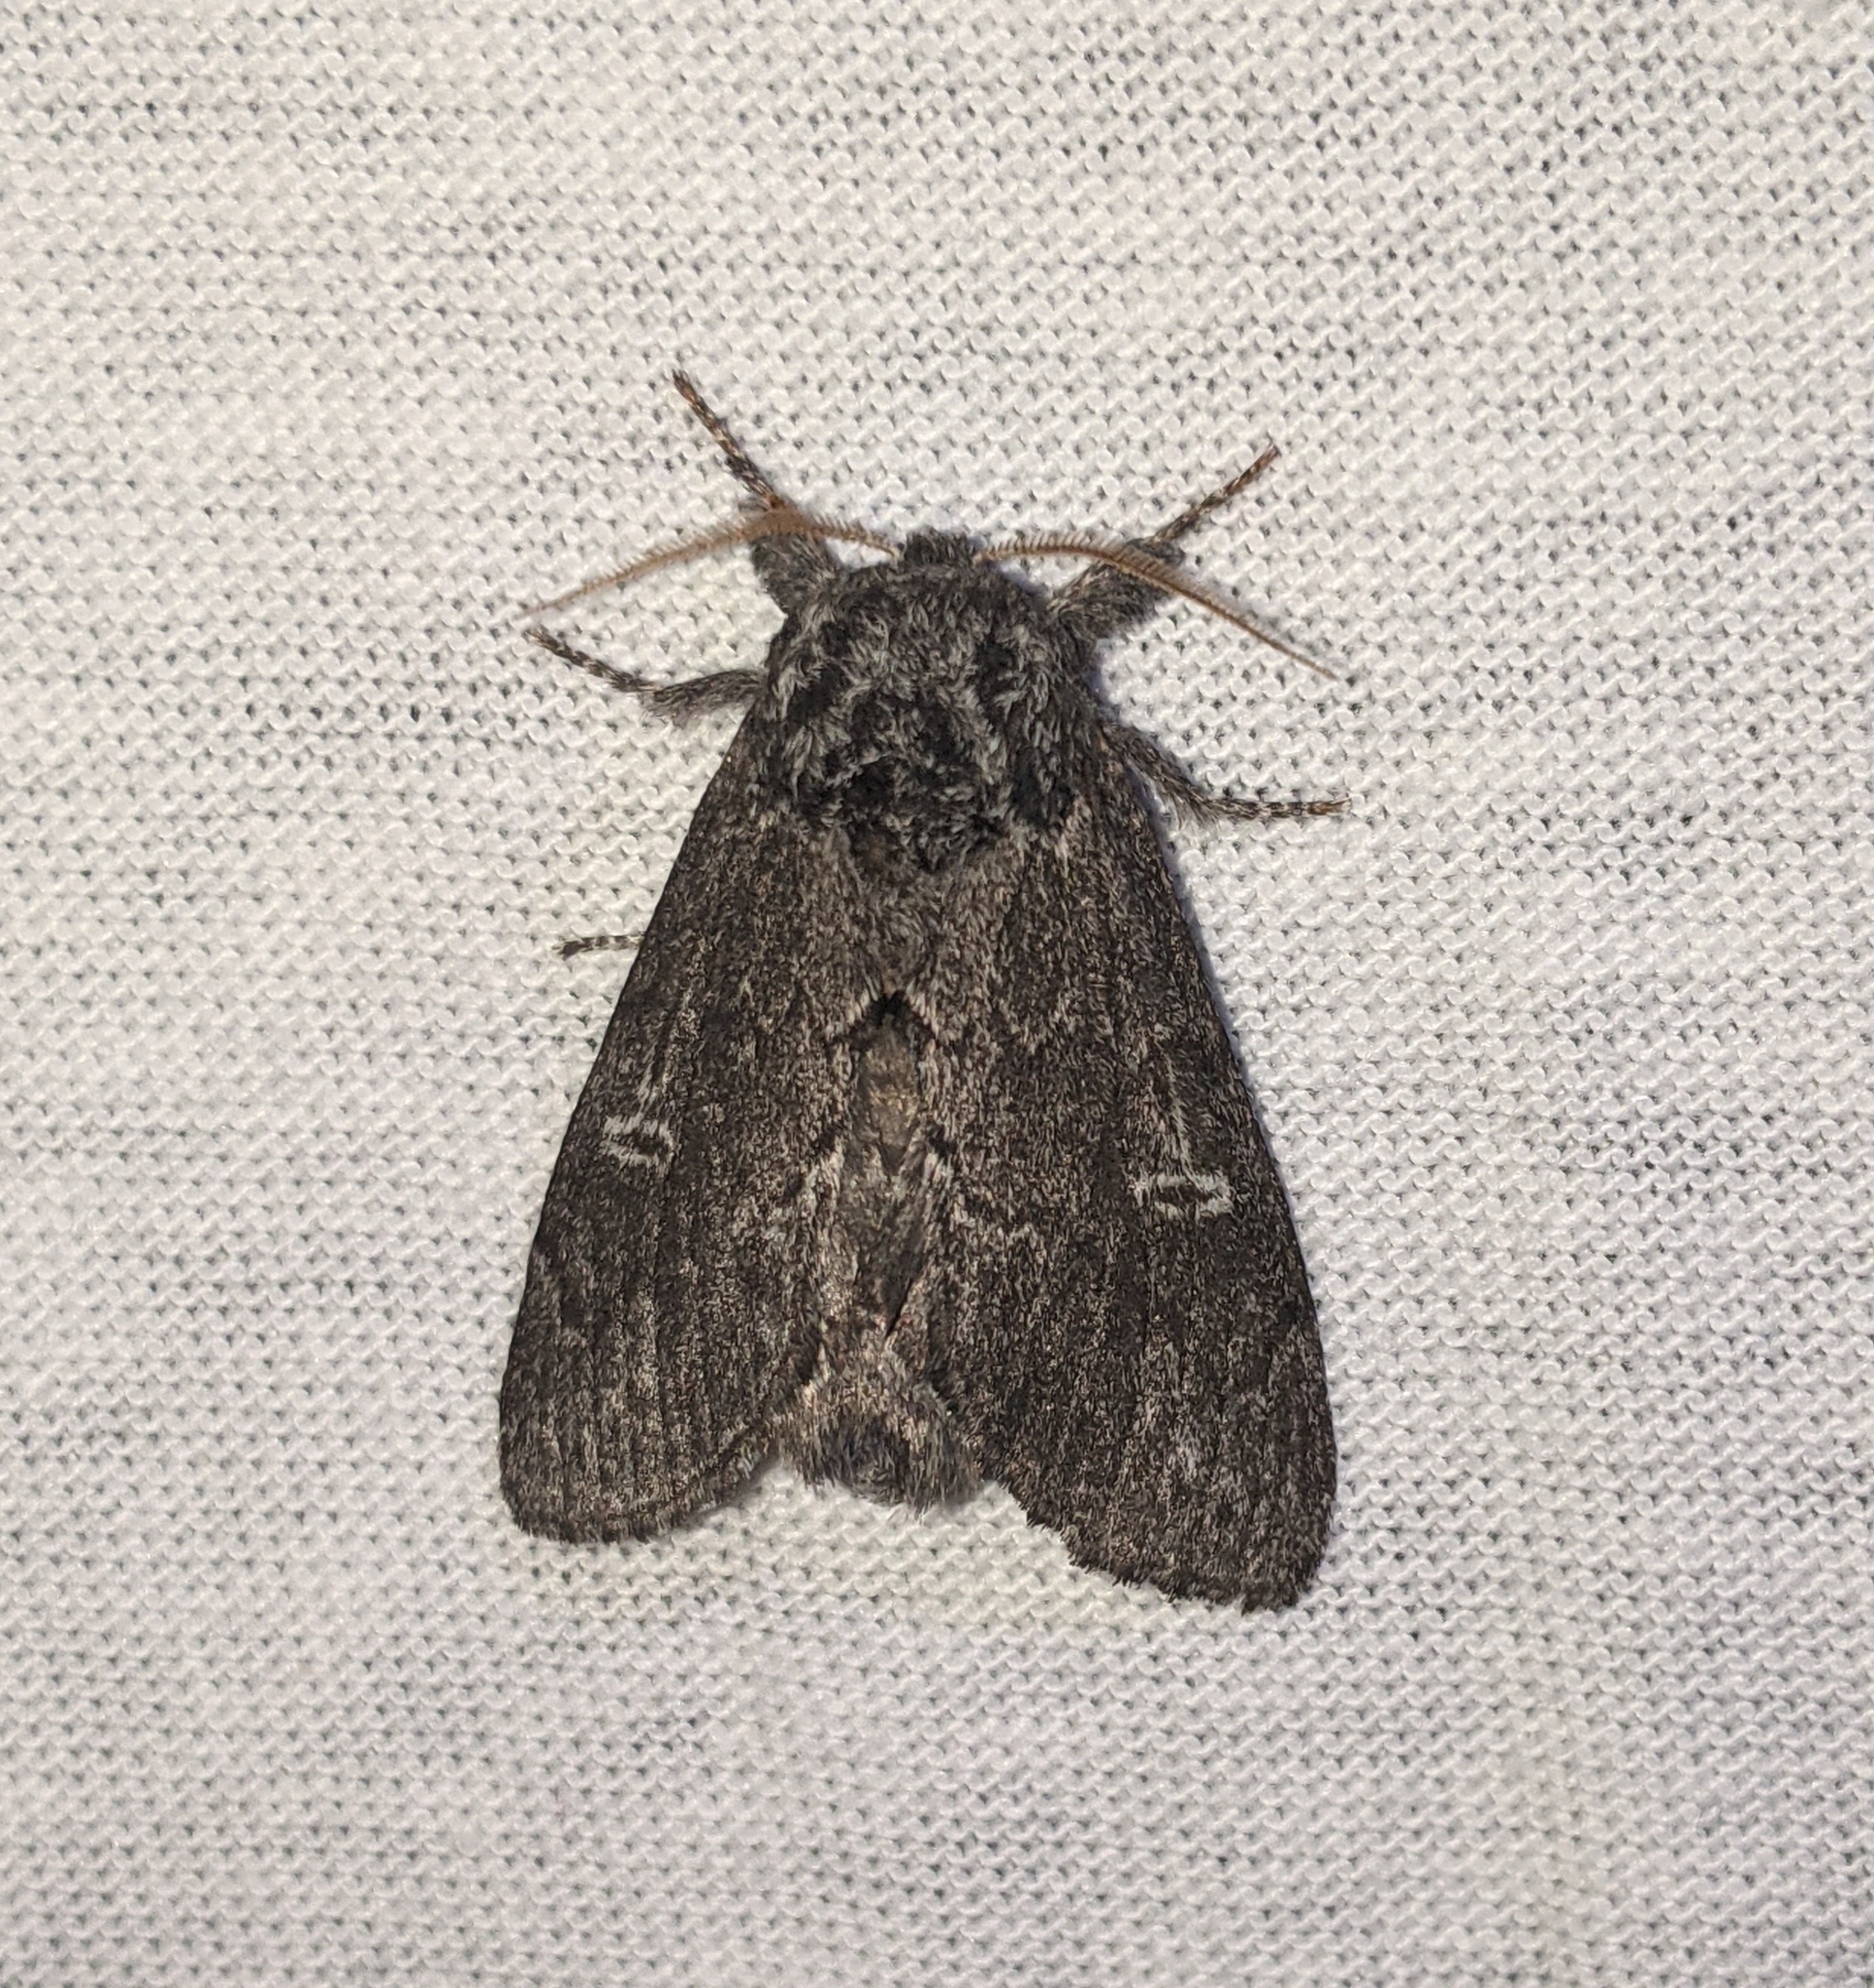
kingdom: Animalia
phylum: Arthropoda
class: Insecta
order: Lepidoptera
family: Notodontidae
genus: Notodonta
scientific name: Notodonta torva
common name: Large dark prominent
